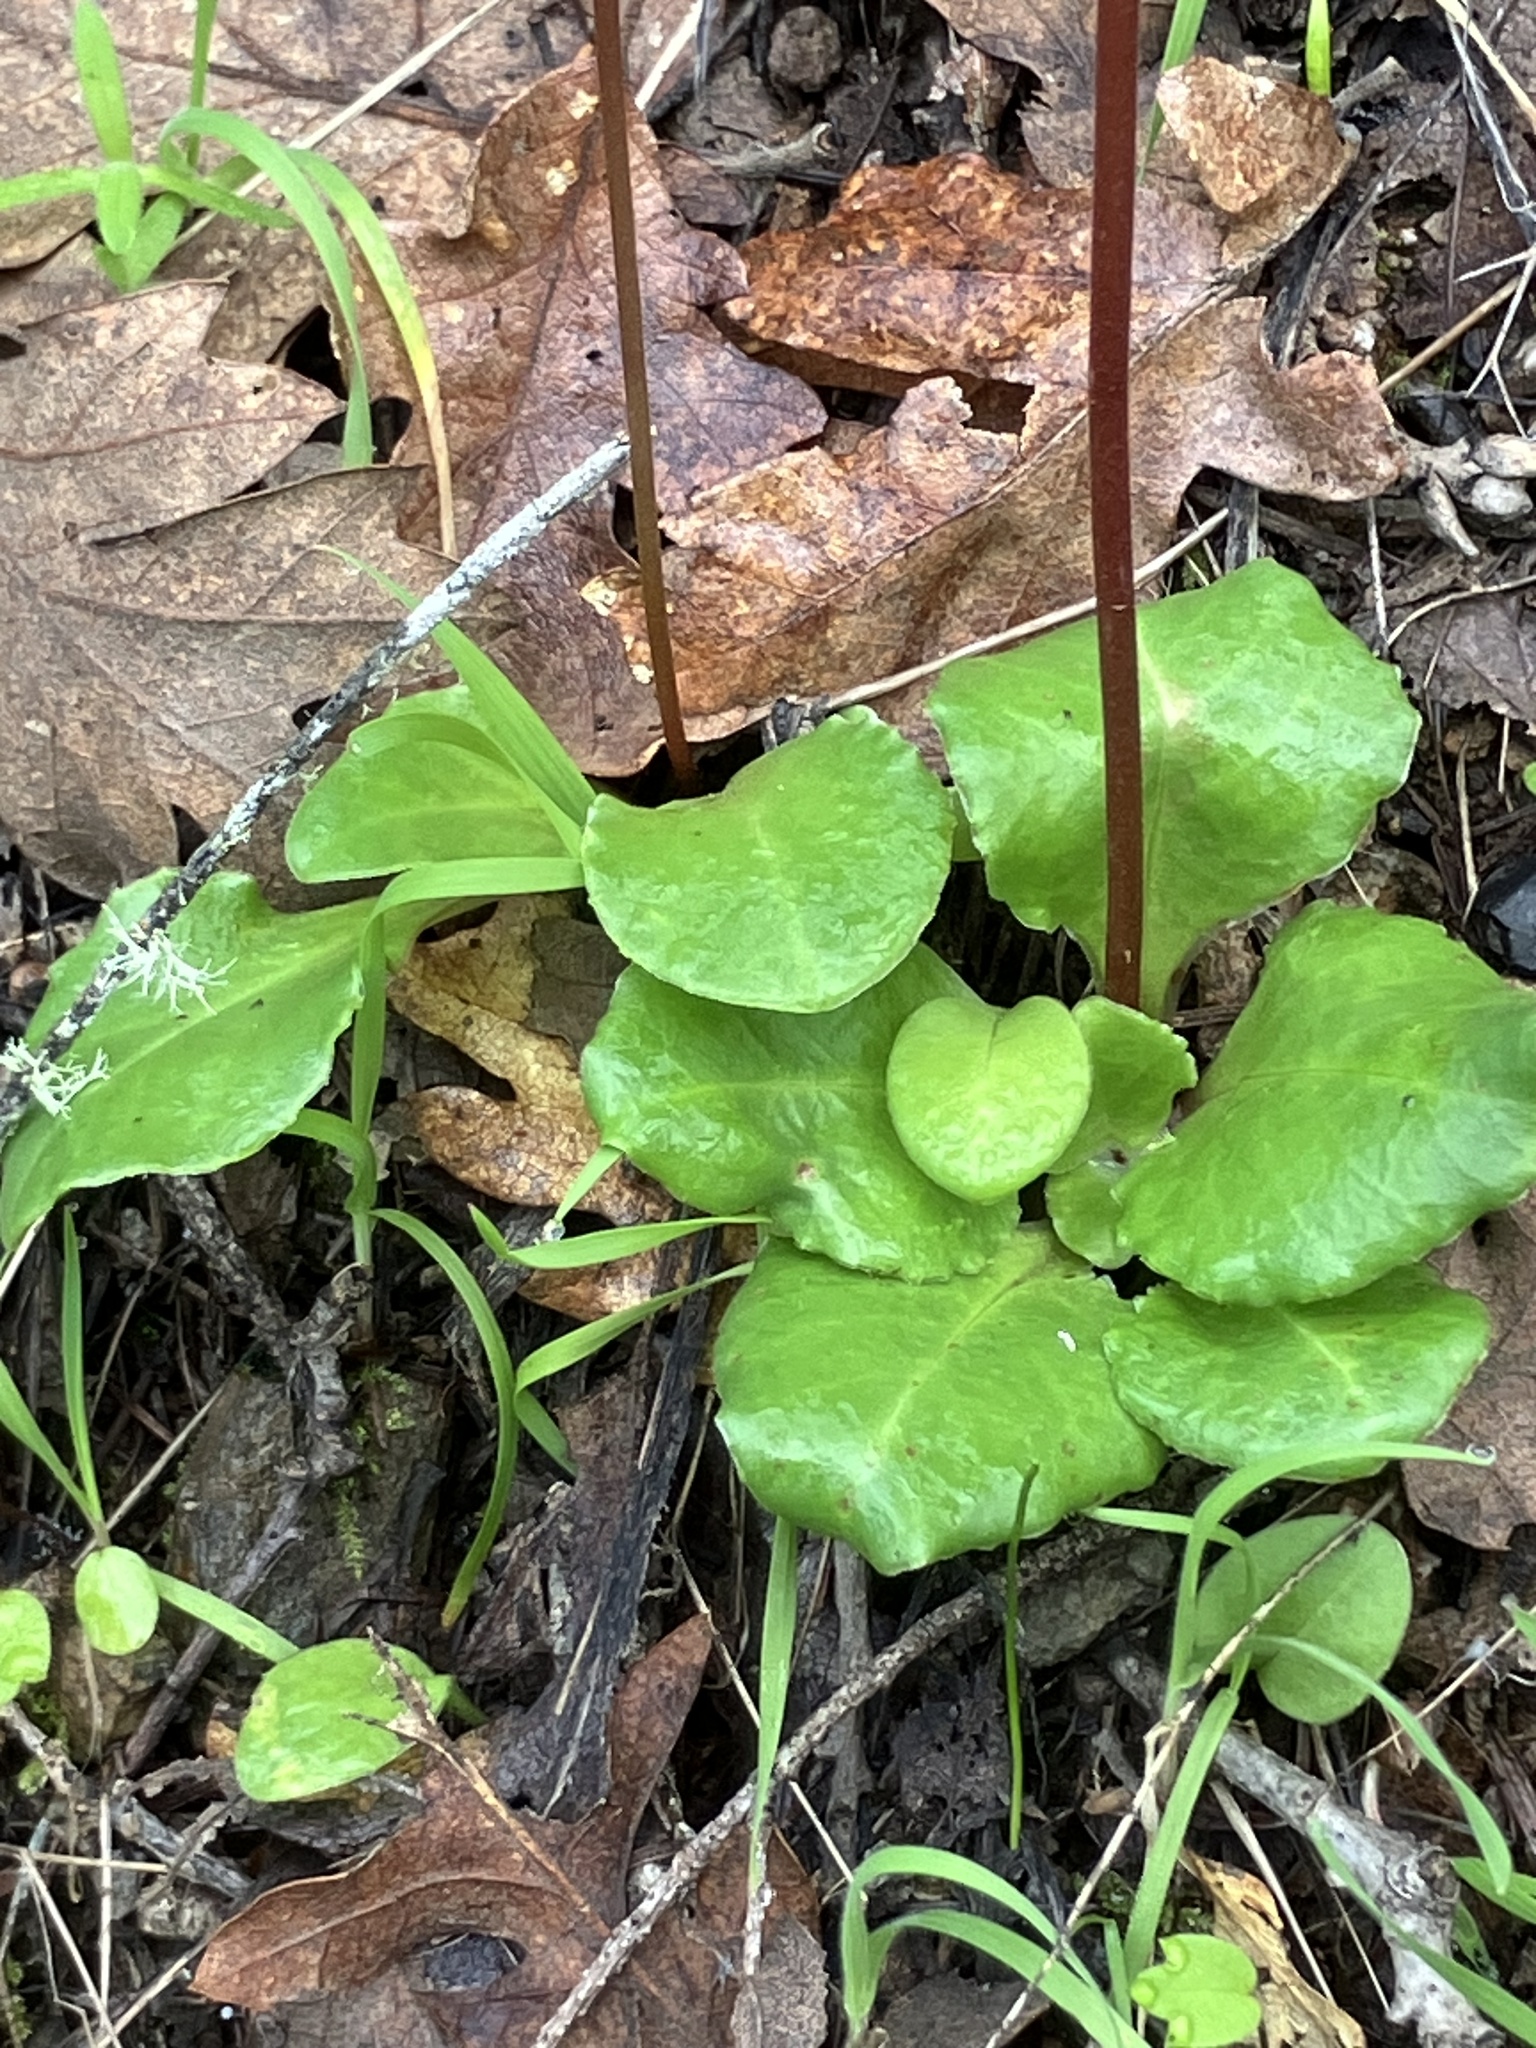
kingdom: Plantae
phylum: Tracheophyta
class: Magnoliopsida
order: Ericales
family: Primulaceae
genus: Dodecatheon
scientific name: Dodecatheon hendersonii
